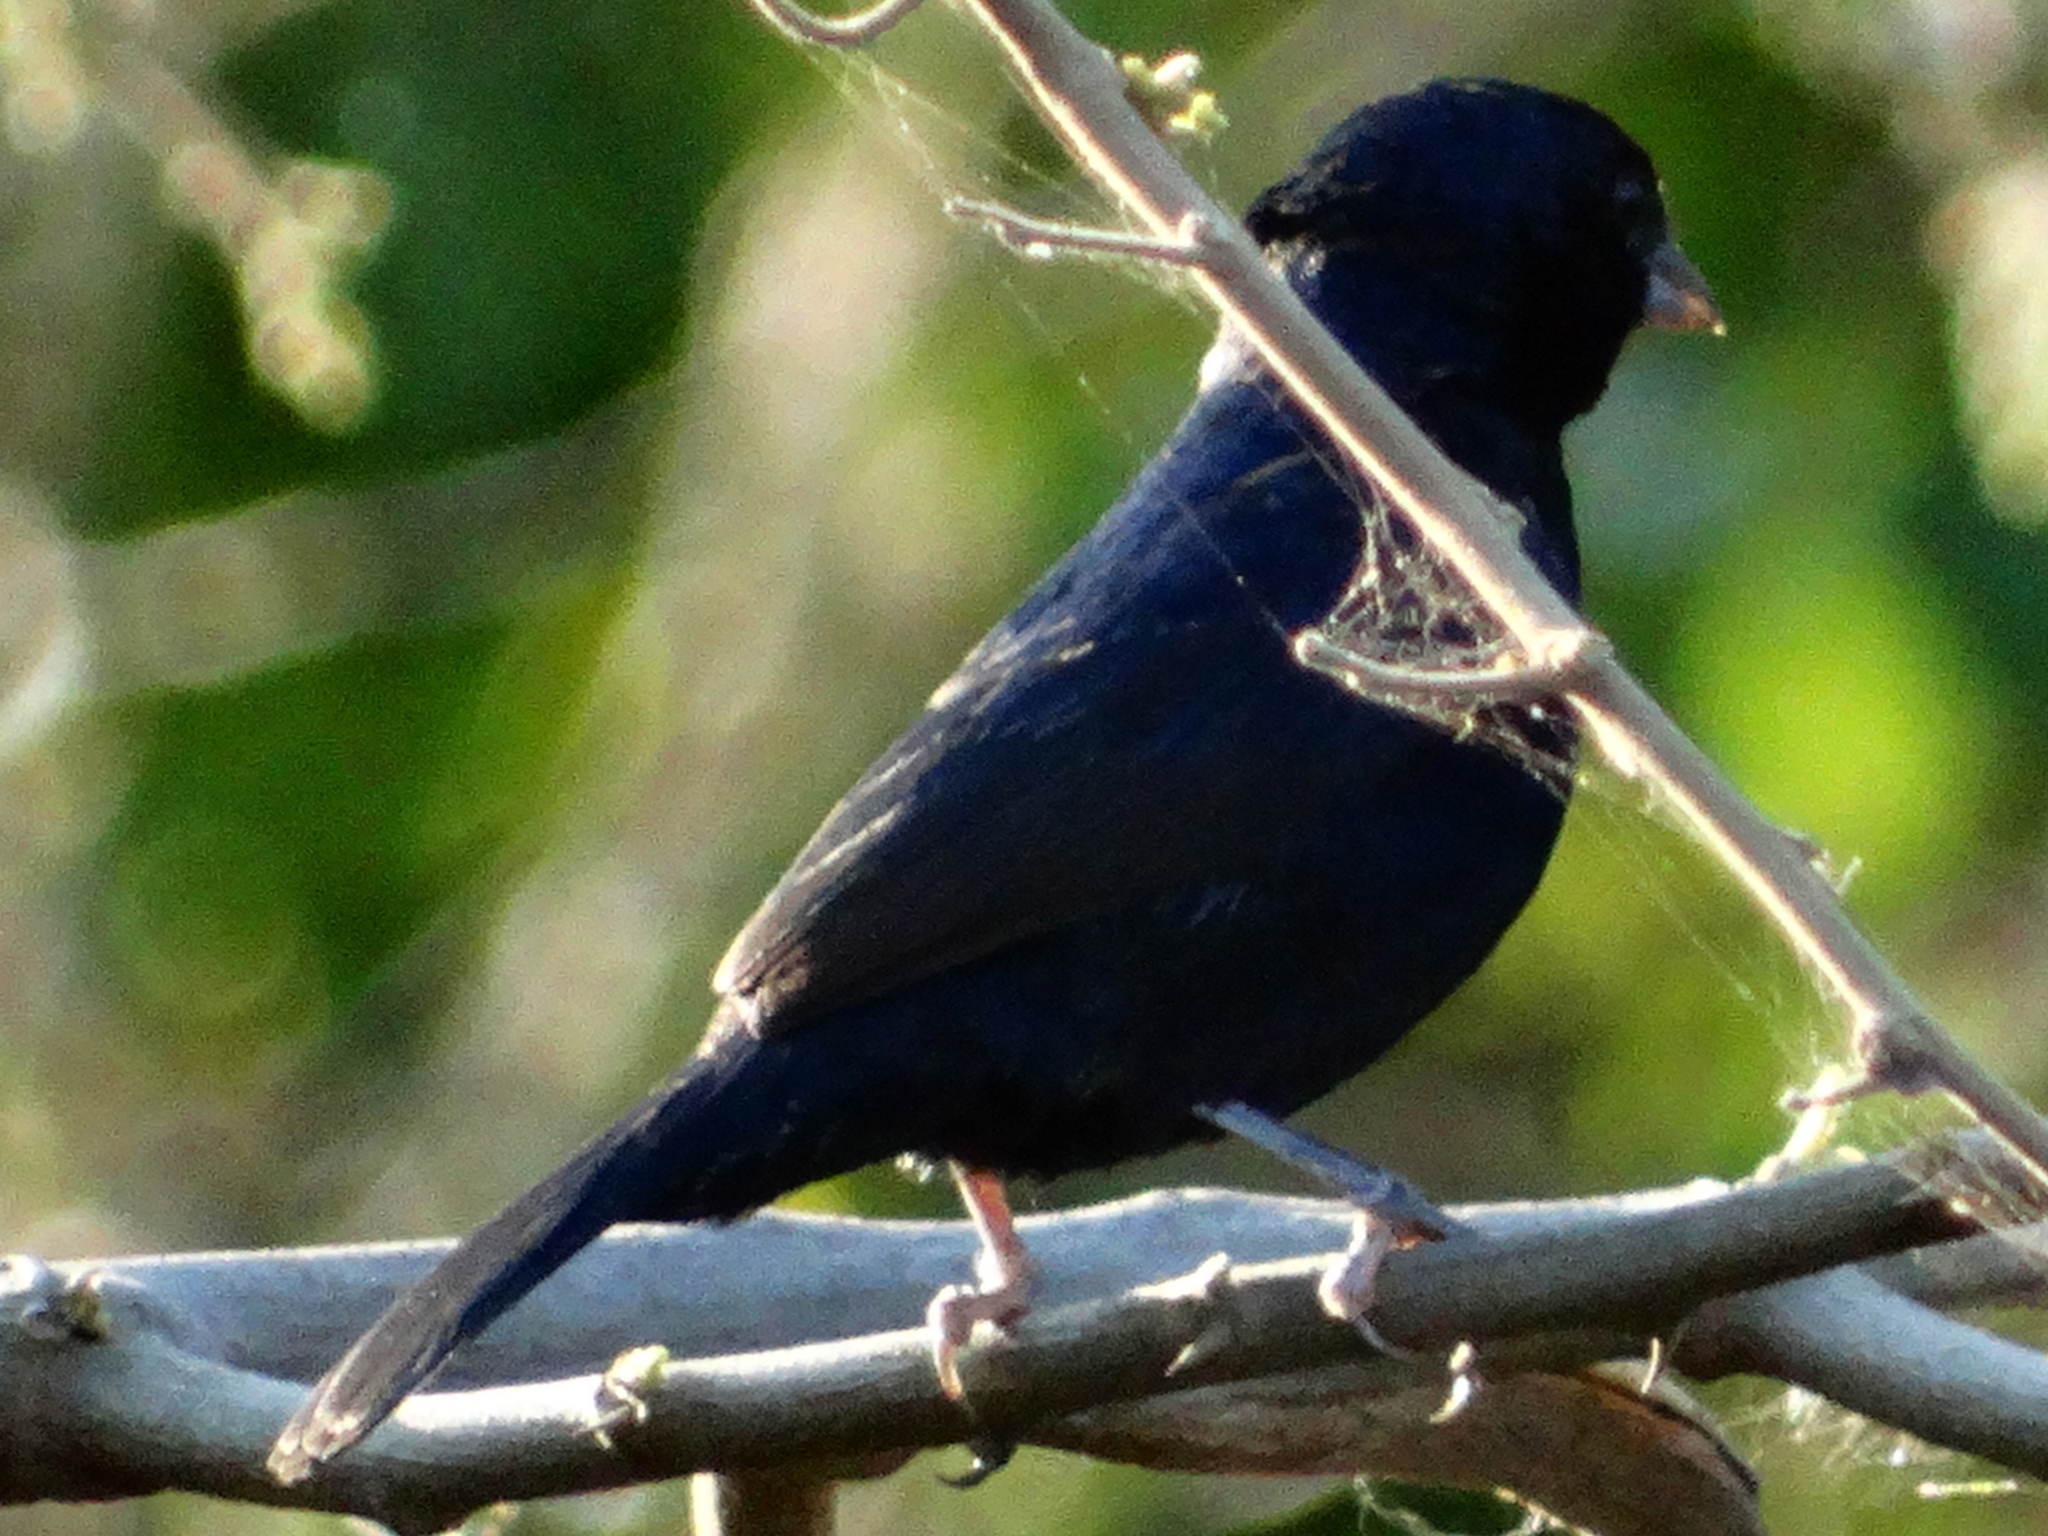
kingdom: Animalia
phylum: Chordata
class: Aves
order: Passeriformes
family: Thraupidae
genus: Volatinia
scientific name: Volatinia jacarina
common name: Blue-black grassquit
